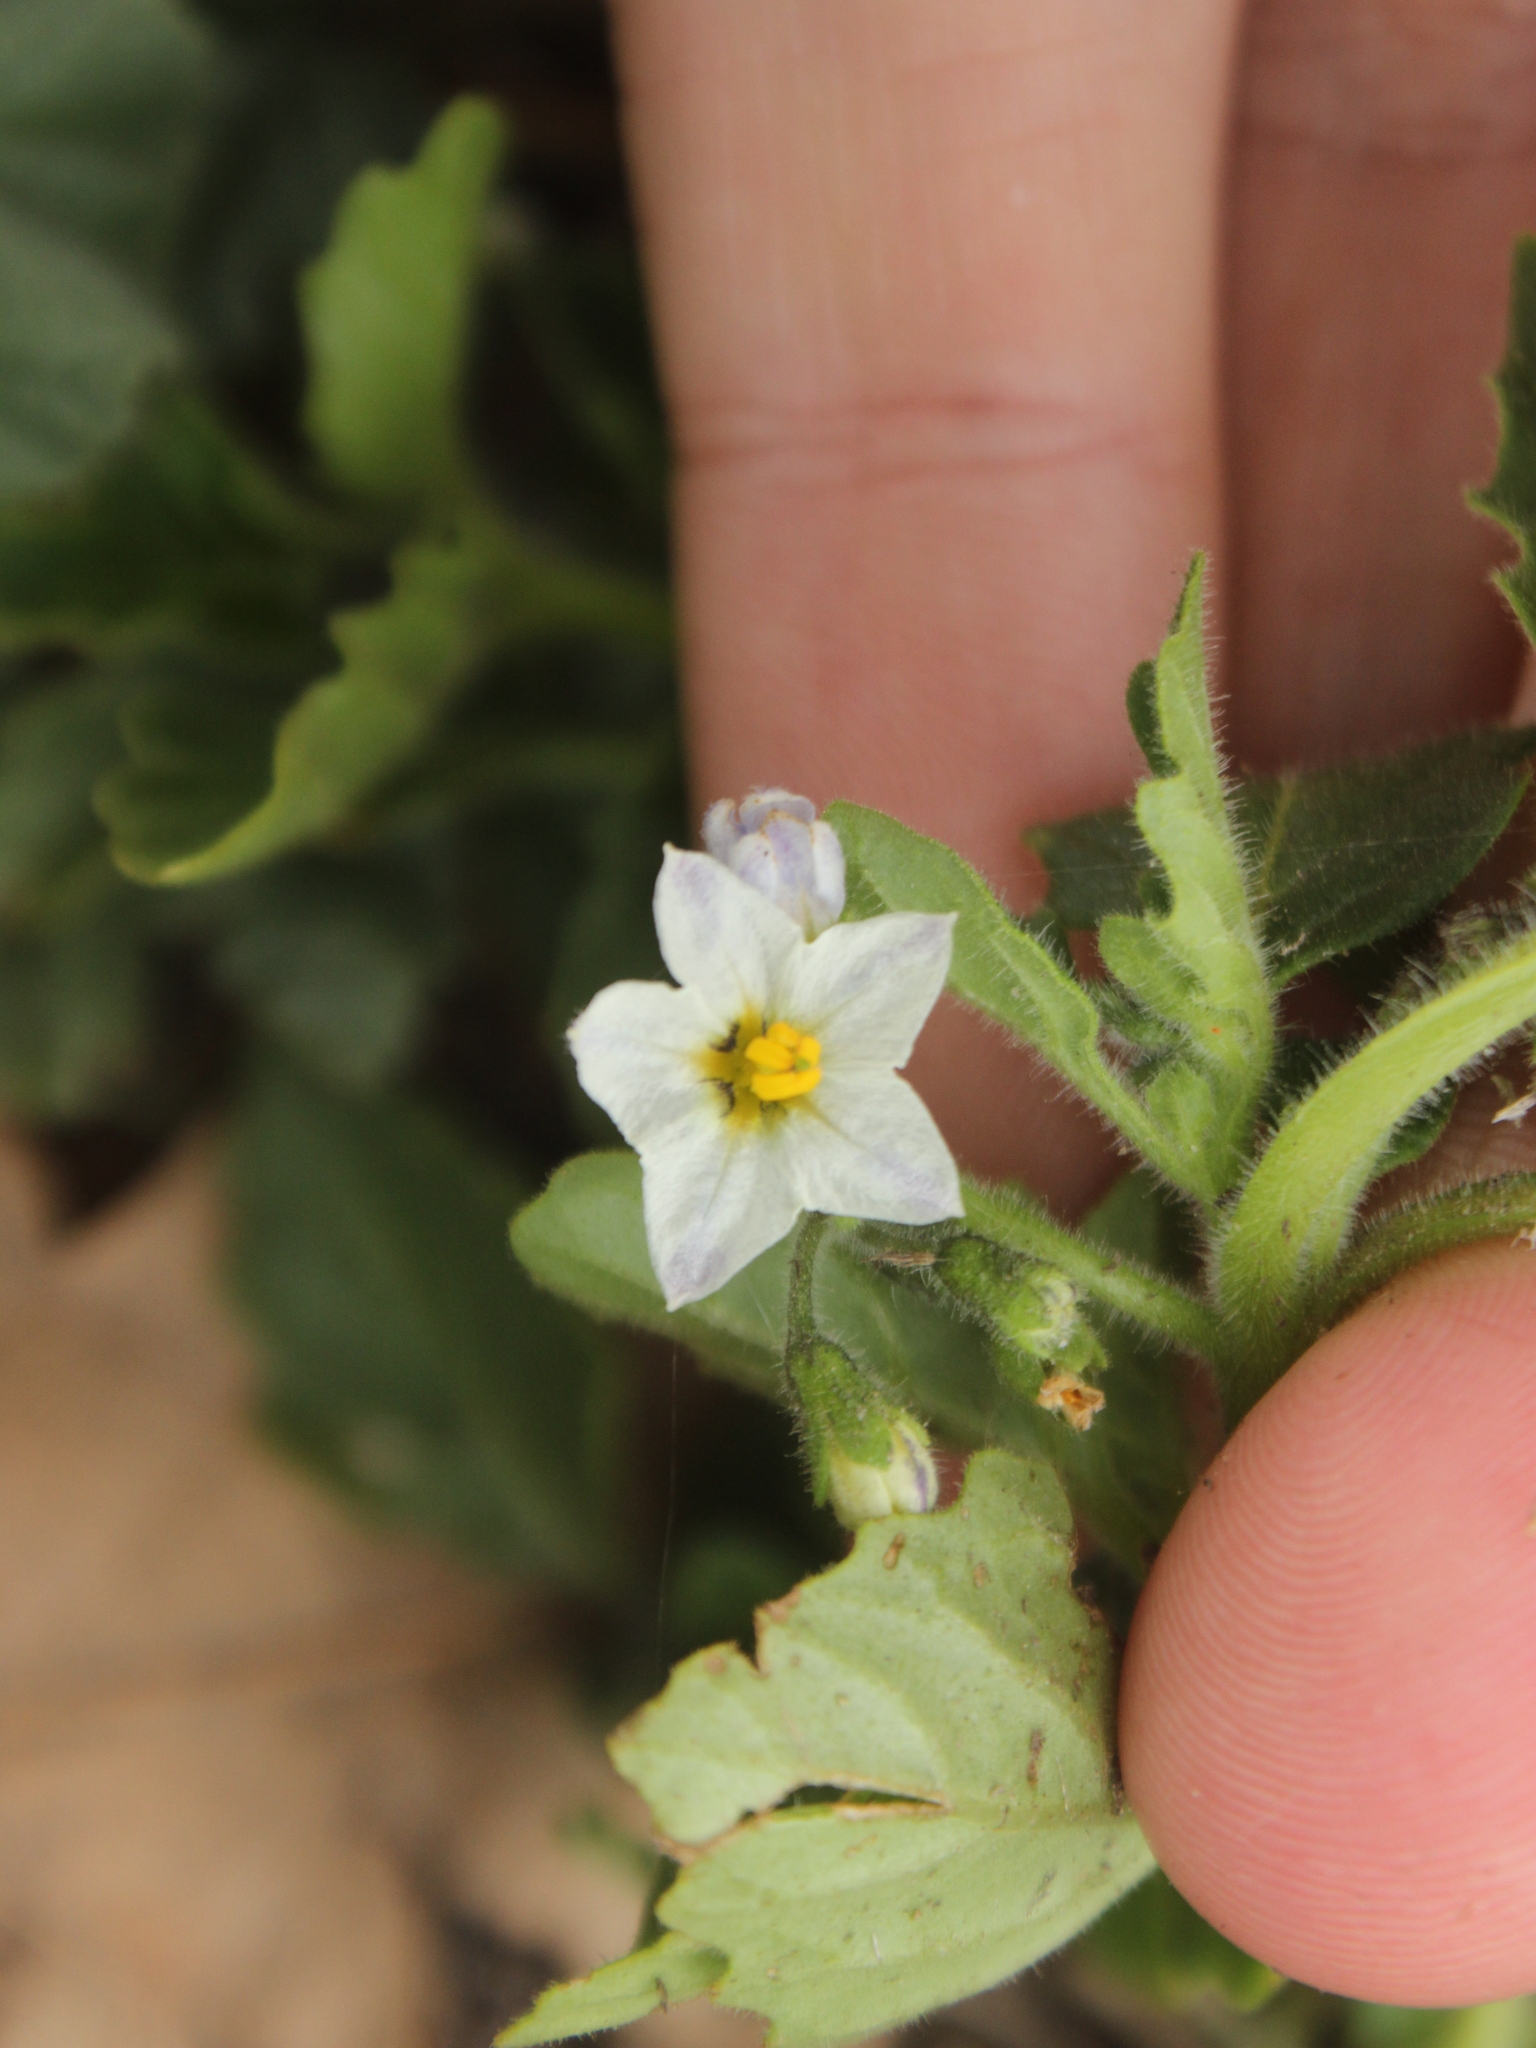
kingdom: Plantae
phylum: Tracheophyta
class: Magnoliopsida
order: Solanales
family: Solanaceae
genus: Solanum
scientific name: Solanum nitidibaccatum
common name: Hairy nightshade
